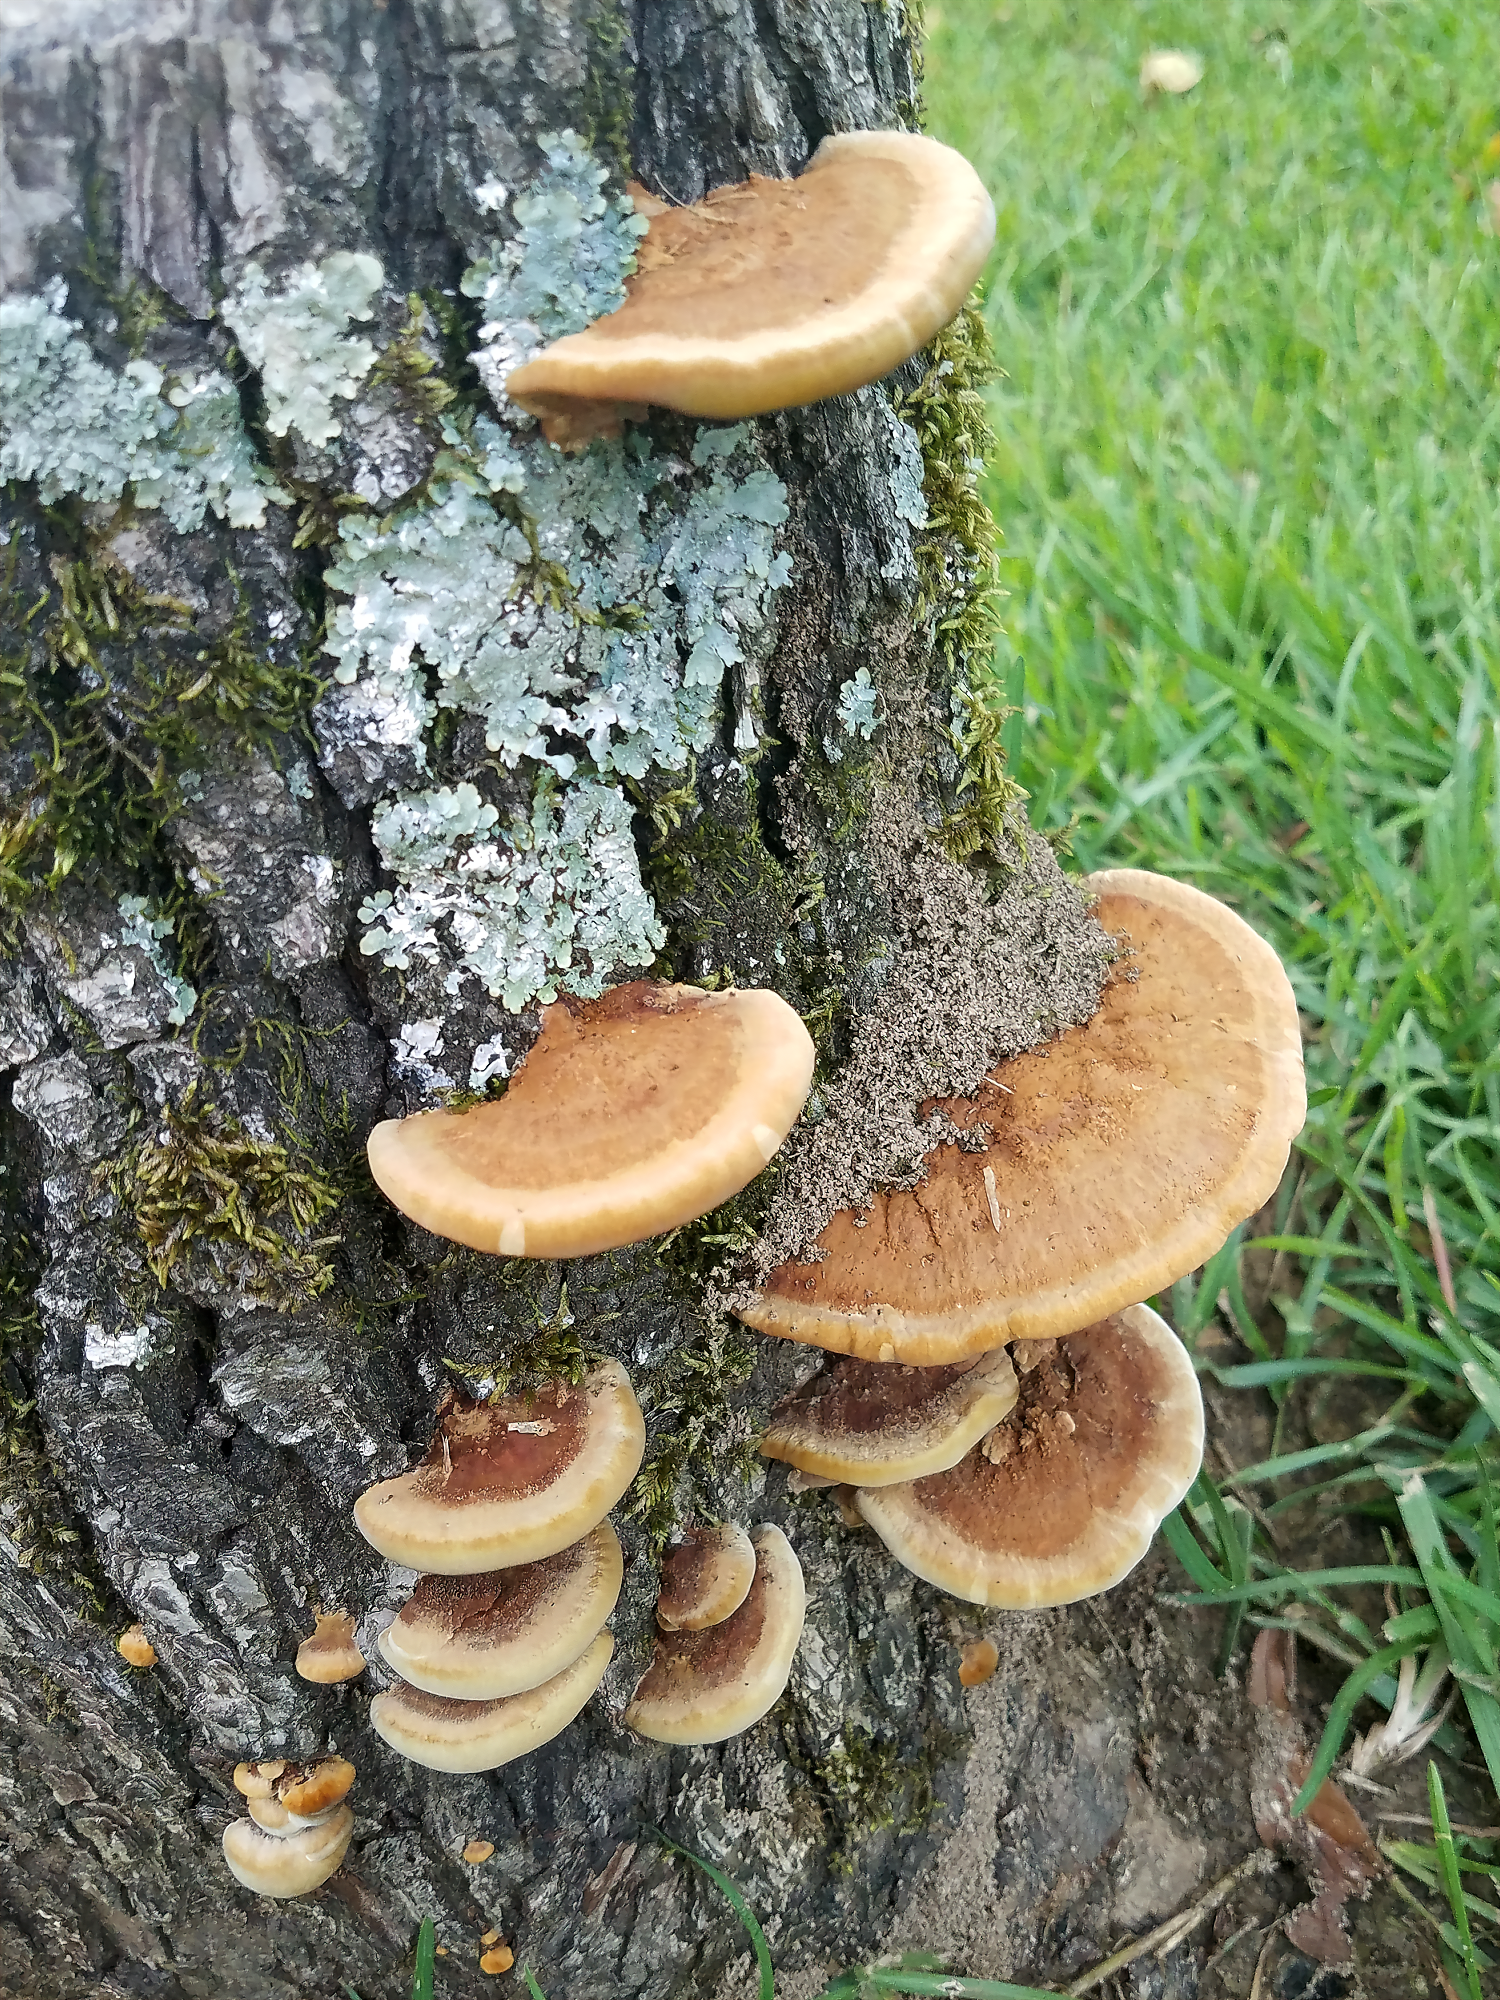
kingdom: Fungi
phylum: Basidiomycota
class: Agaricomycetes
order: Hymenochaetales
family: Hymenochaetaceae
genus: Phellinus
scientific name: Phellinus gilvus
